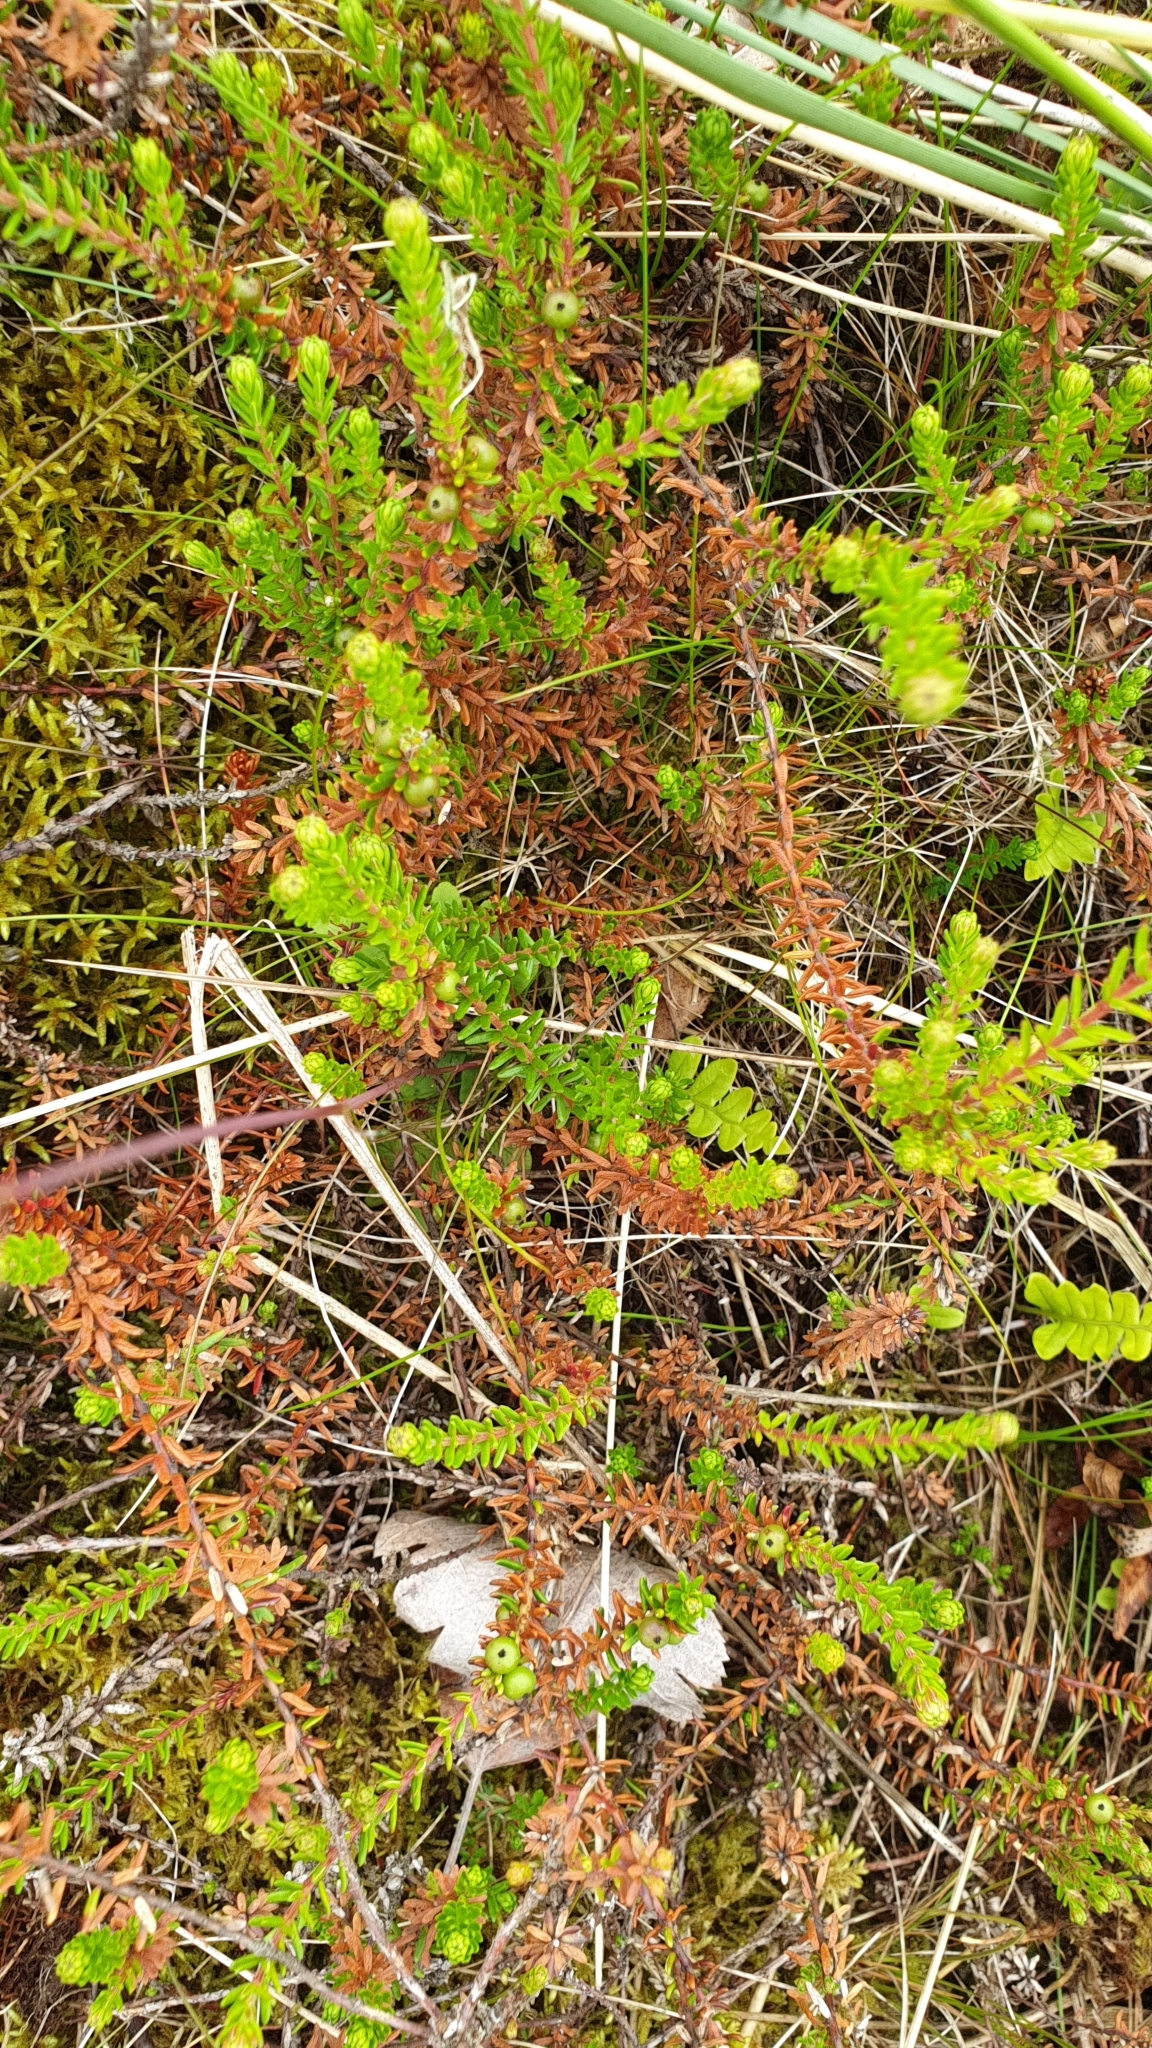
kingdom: Plantae
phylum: Tracheophyta
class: Magnoliopsida
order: Ericales
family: Ericaceae
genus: Empetrum
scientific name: Empetrum nigrum
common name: Black crowberry
